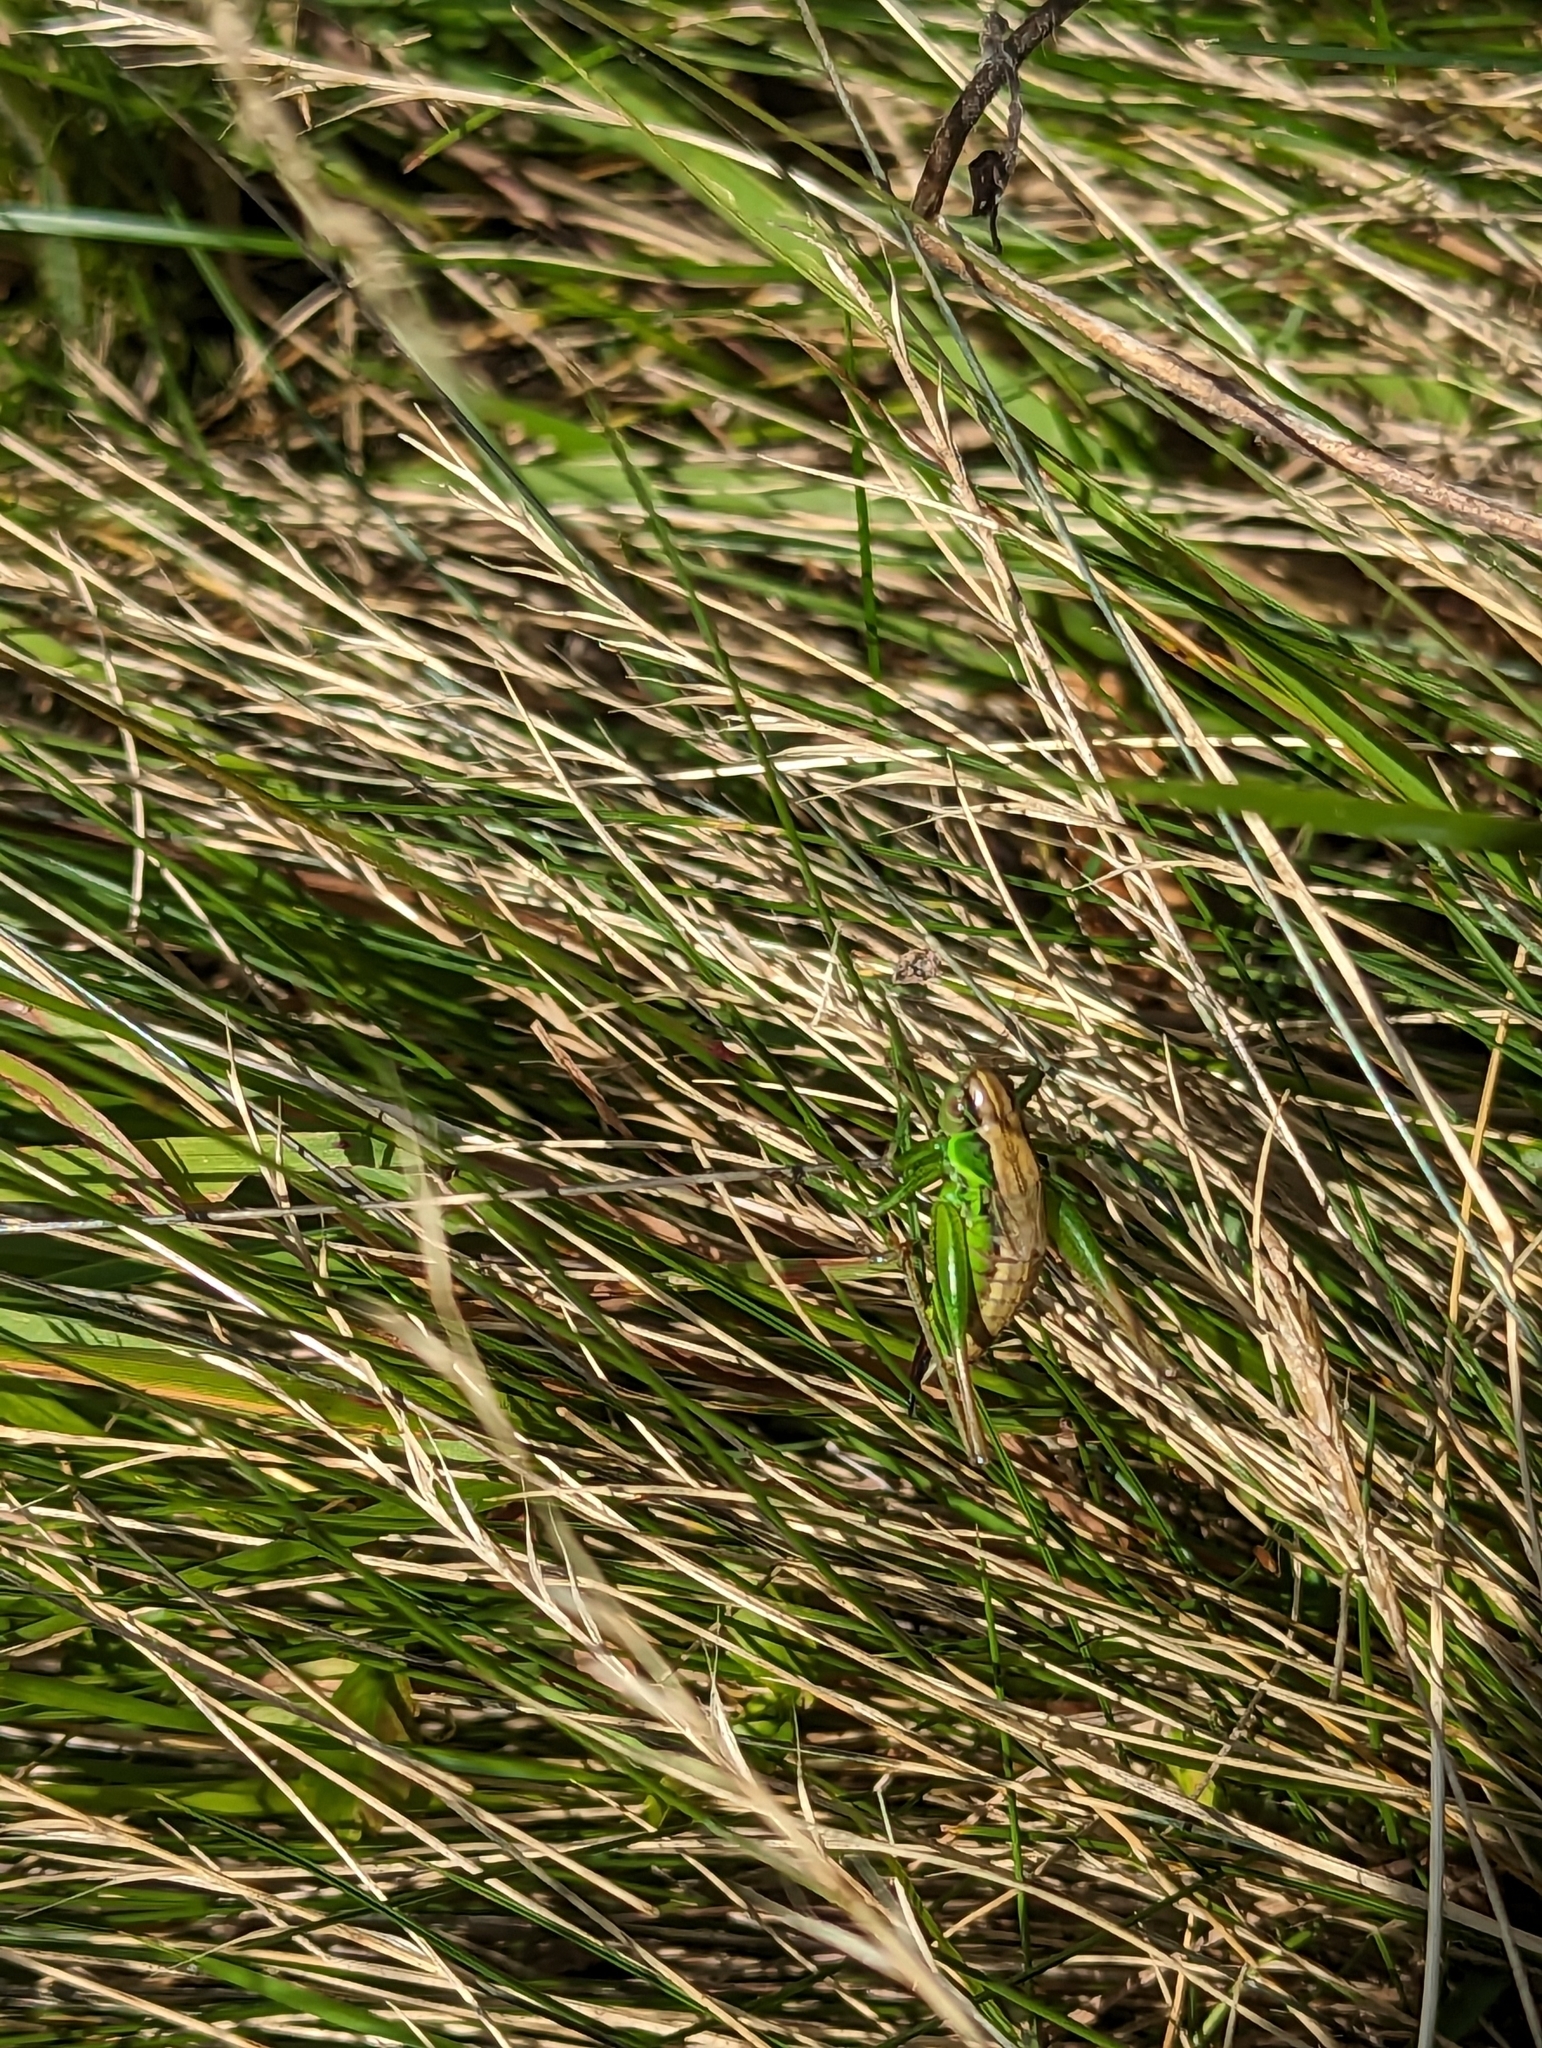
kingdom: Animalia
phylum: Arthropoda
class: Insecta
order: Orthoptera
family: Tettigoniidae
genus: Roeseliana
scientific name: Roeseliana roeselii
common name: Roesel's bush cricket
